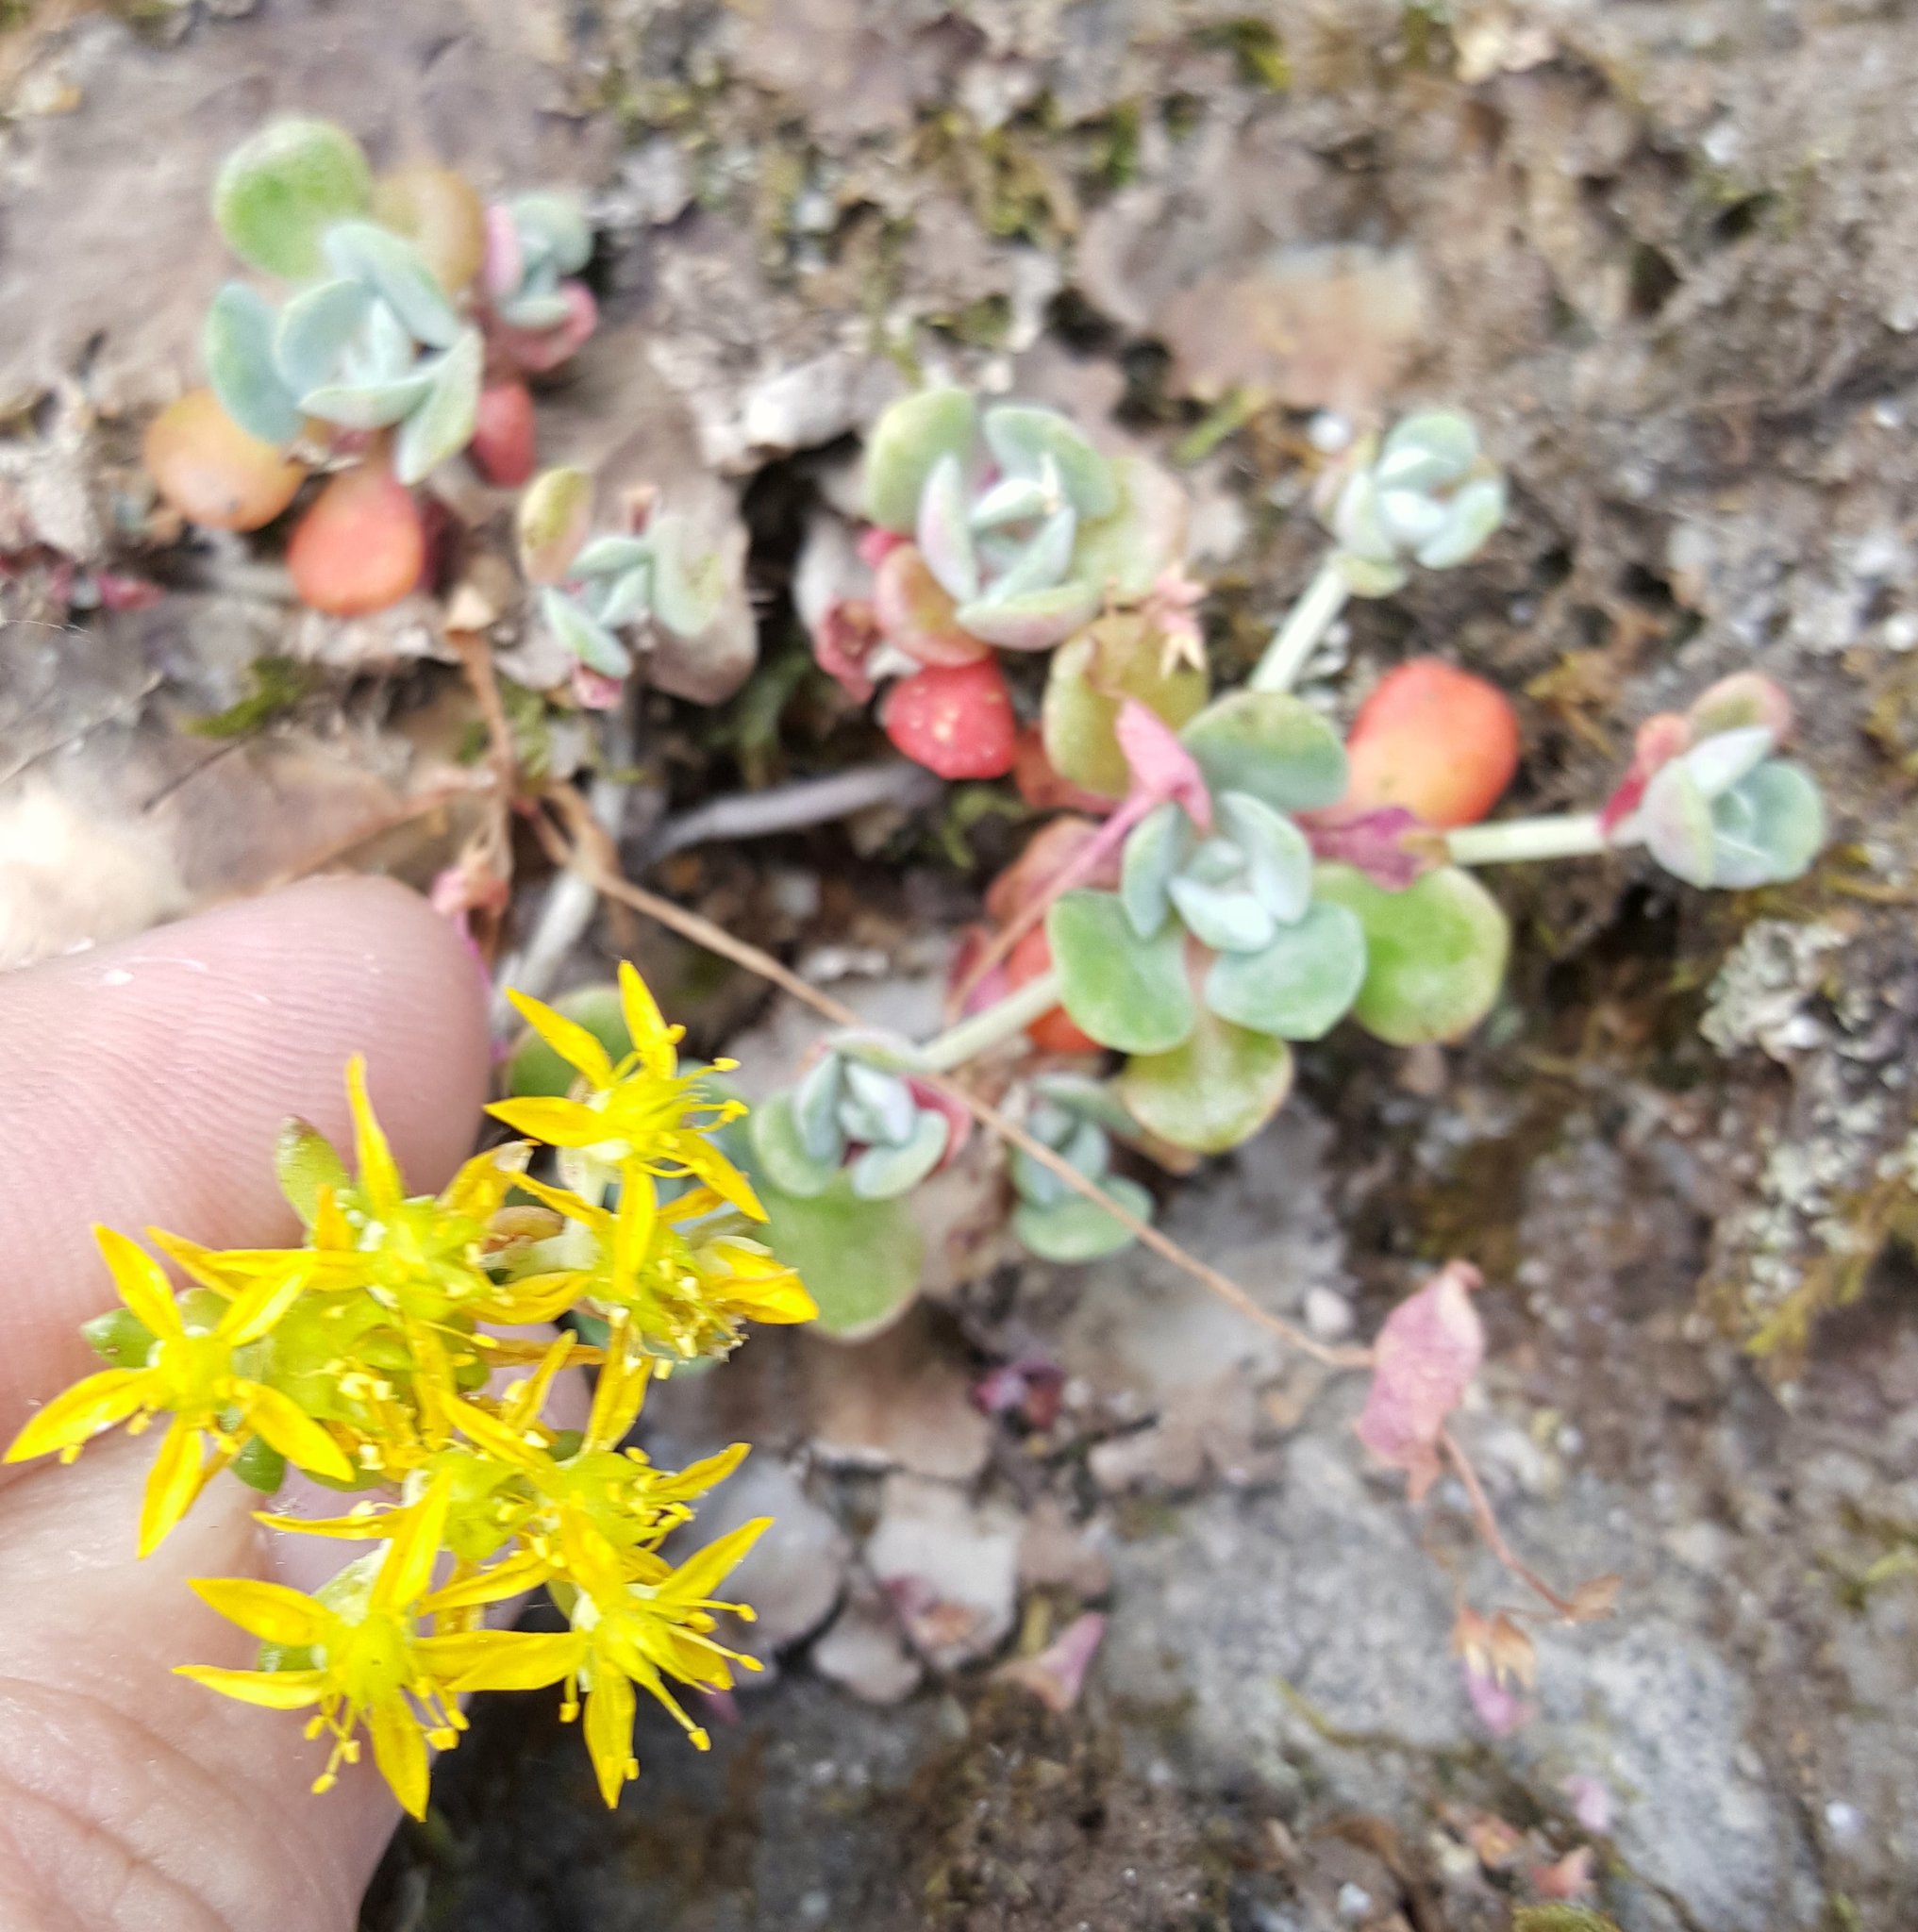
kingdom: Plantae
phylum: Tracheophyta
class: Magnoliopsida
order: Saxifragales
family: Crassulaceae
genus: Sedum
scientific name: Sedum spathulifolium
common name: Colorado stonecrop
